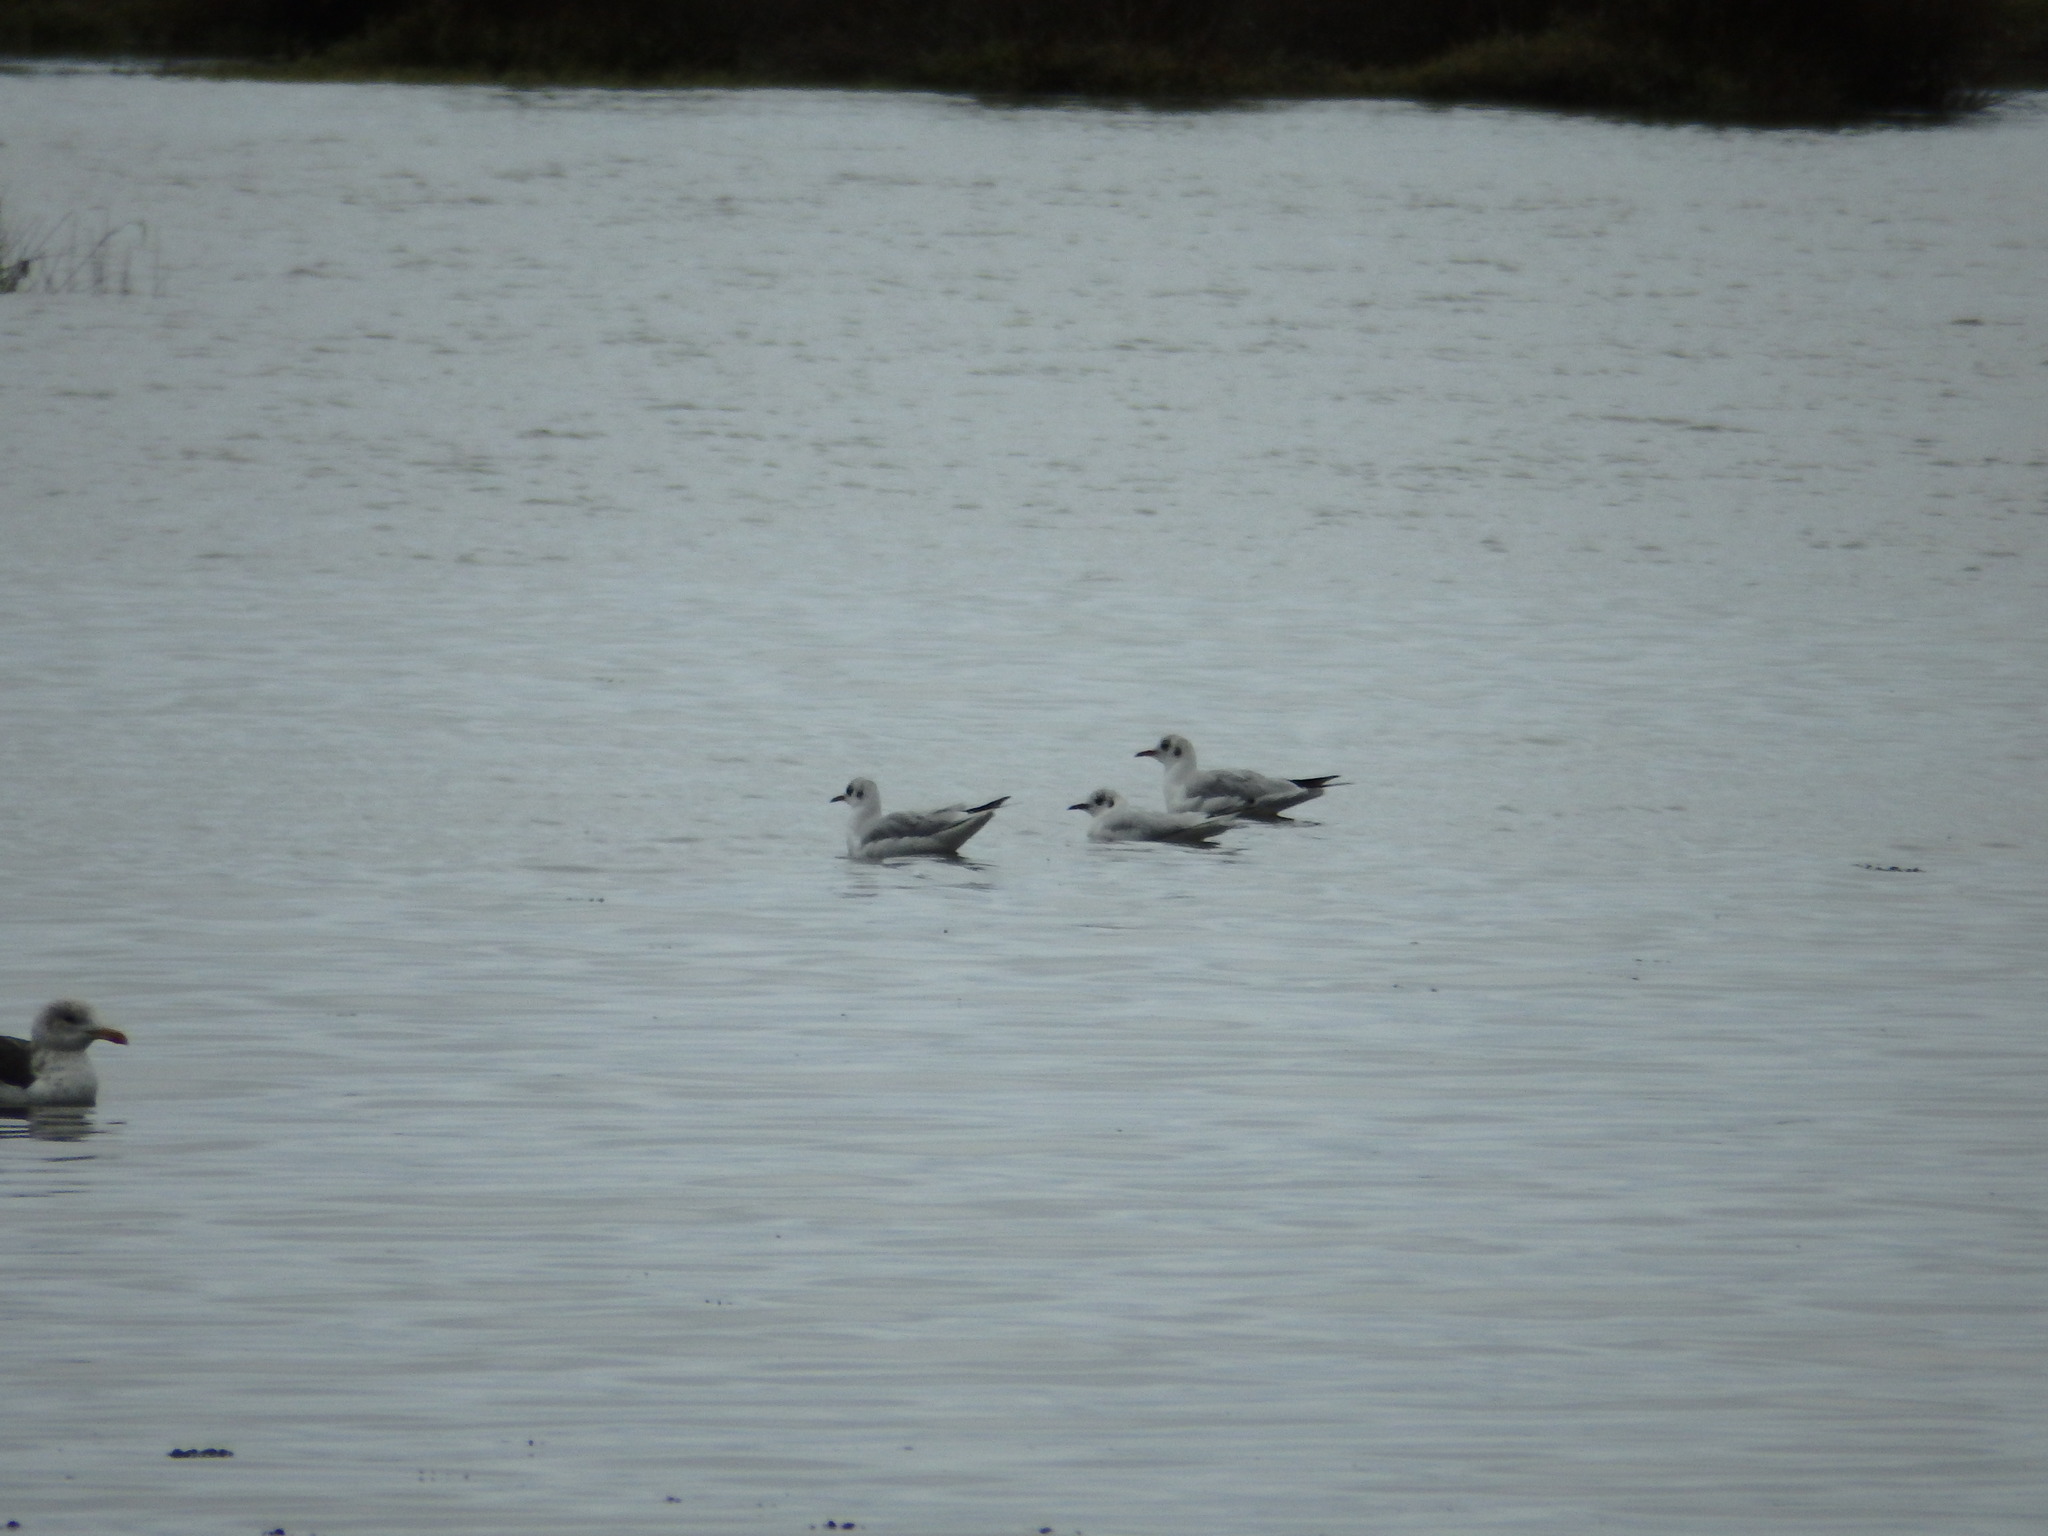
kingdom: Animalia
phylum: Chordata
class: Aves
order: Charadriiformes
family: Laridae
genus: Chroicocephalus
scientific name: Chroicocephalus ridibundus
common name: Black-headed gull
